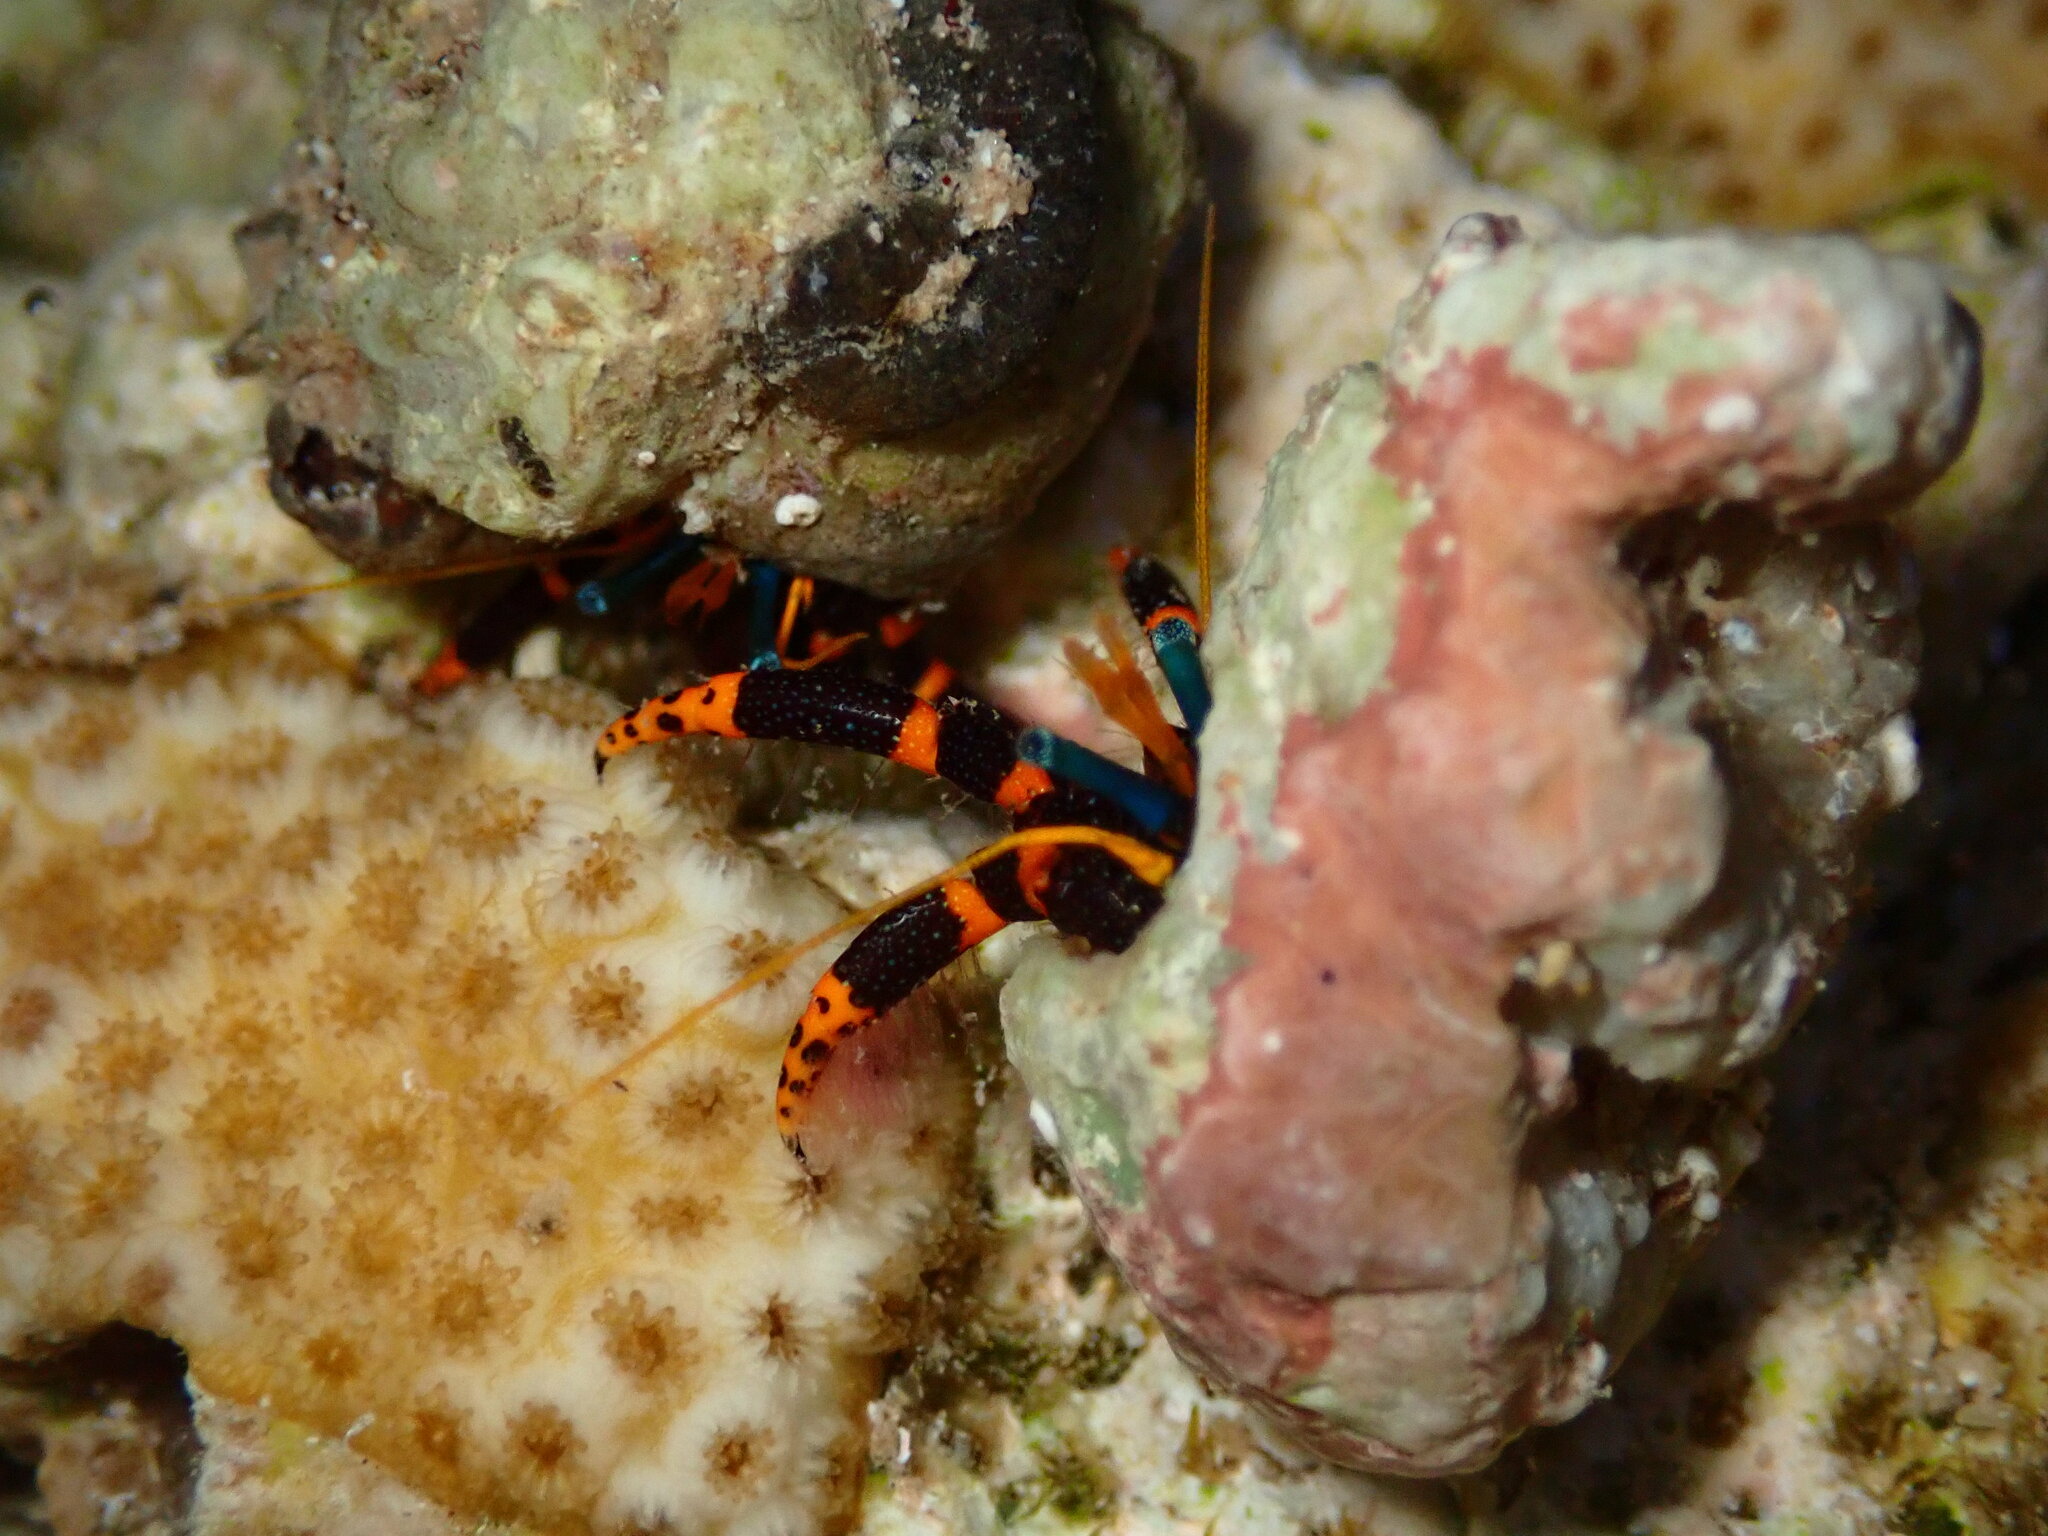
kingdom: Animalia
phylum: Arthropoda
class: Malacostraca
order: Decapoda
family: Diogenidae
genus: Calcinus
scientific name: Calcinus pictus
